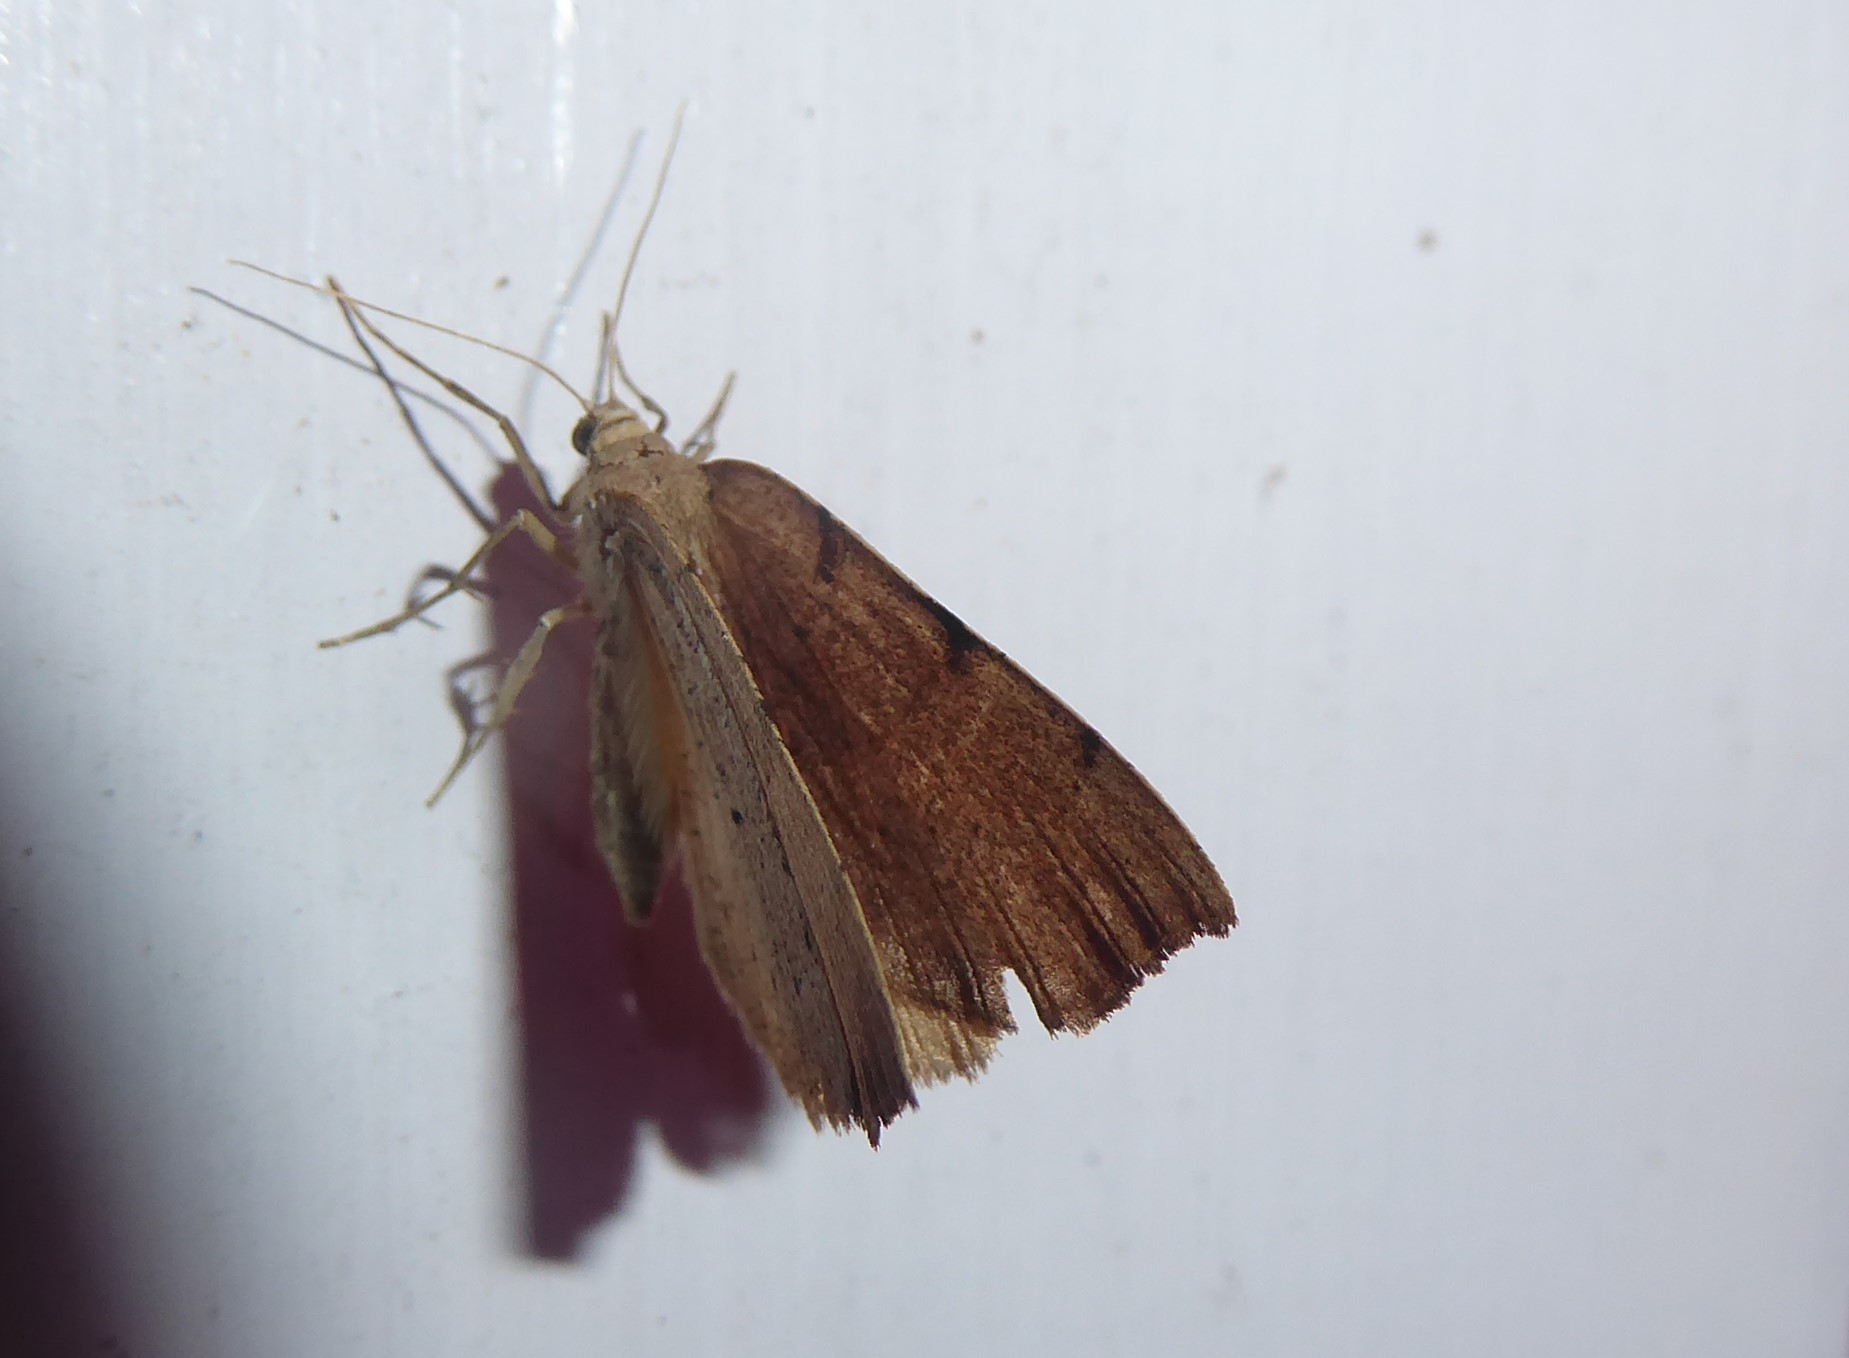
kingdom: Animalia
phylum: Arthropoda
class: Insecta
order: Lepidoptera
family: Geometridae
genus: Sestra
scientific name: Sestra humeraria
